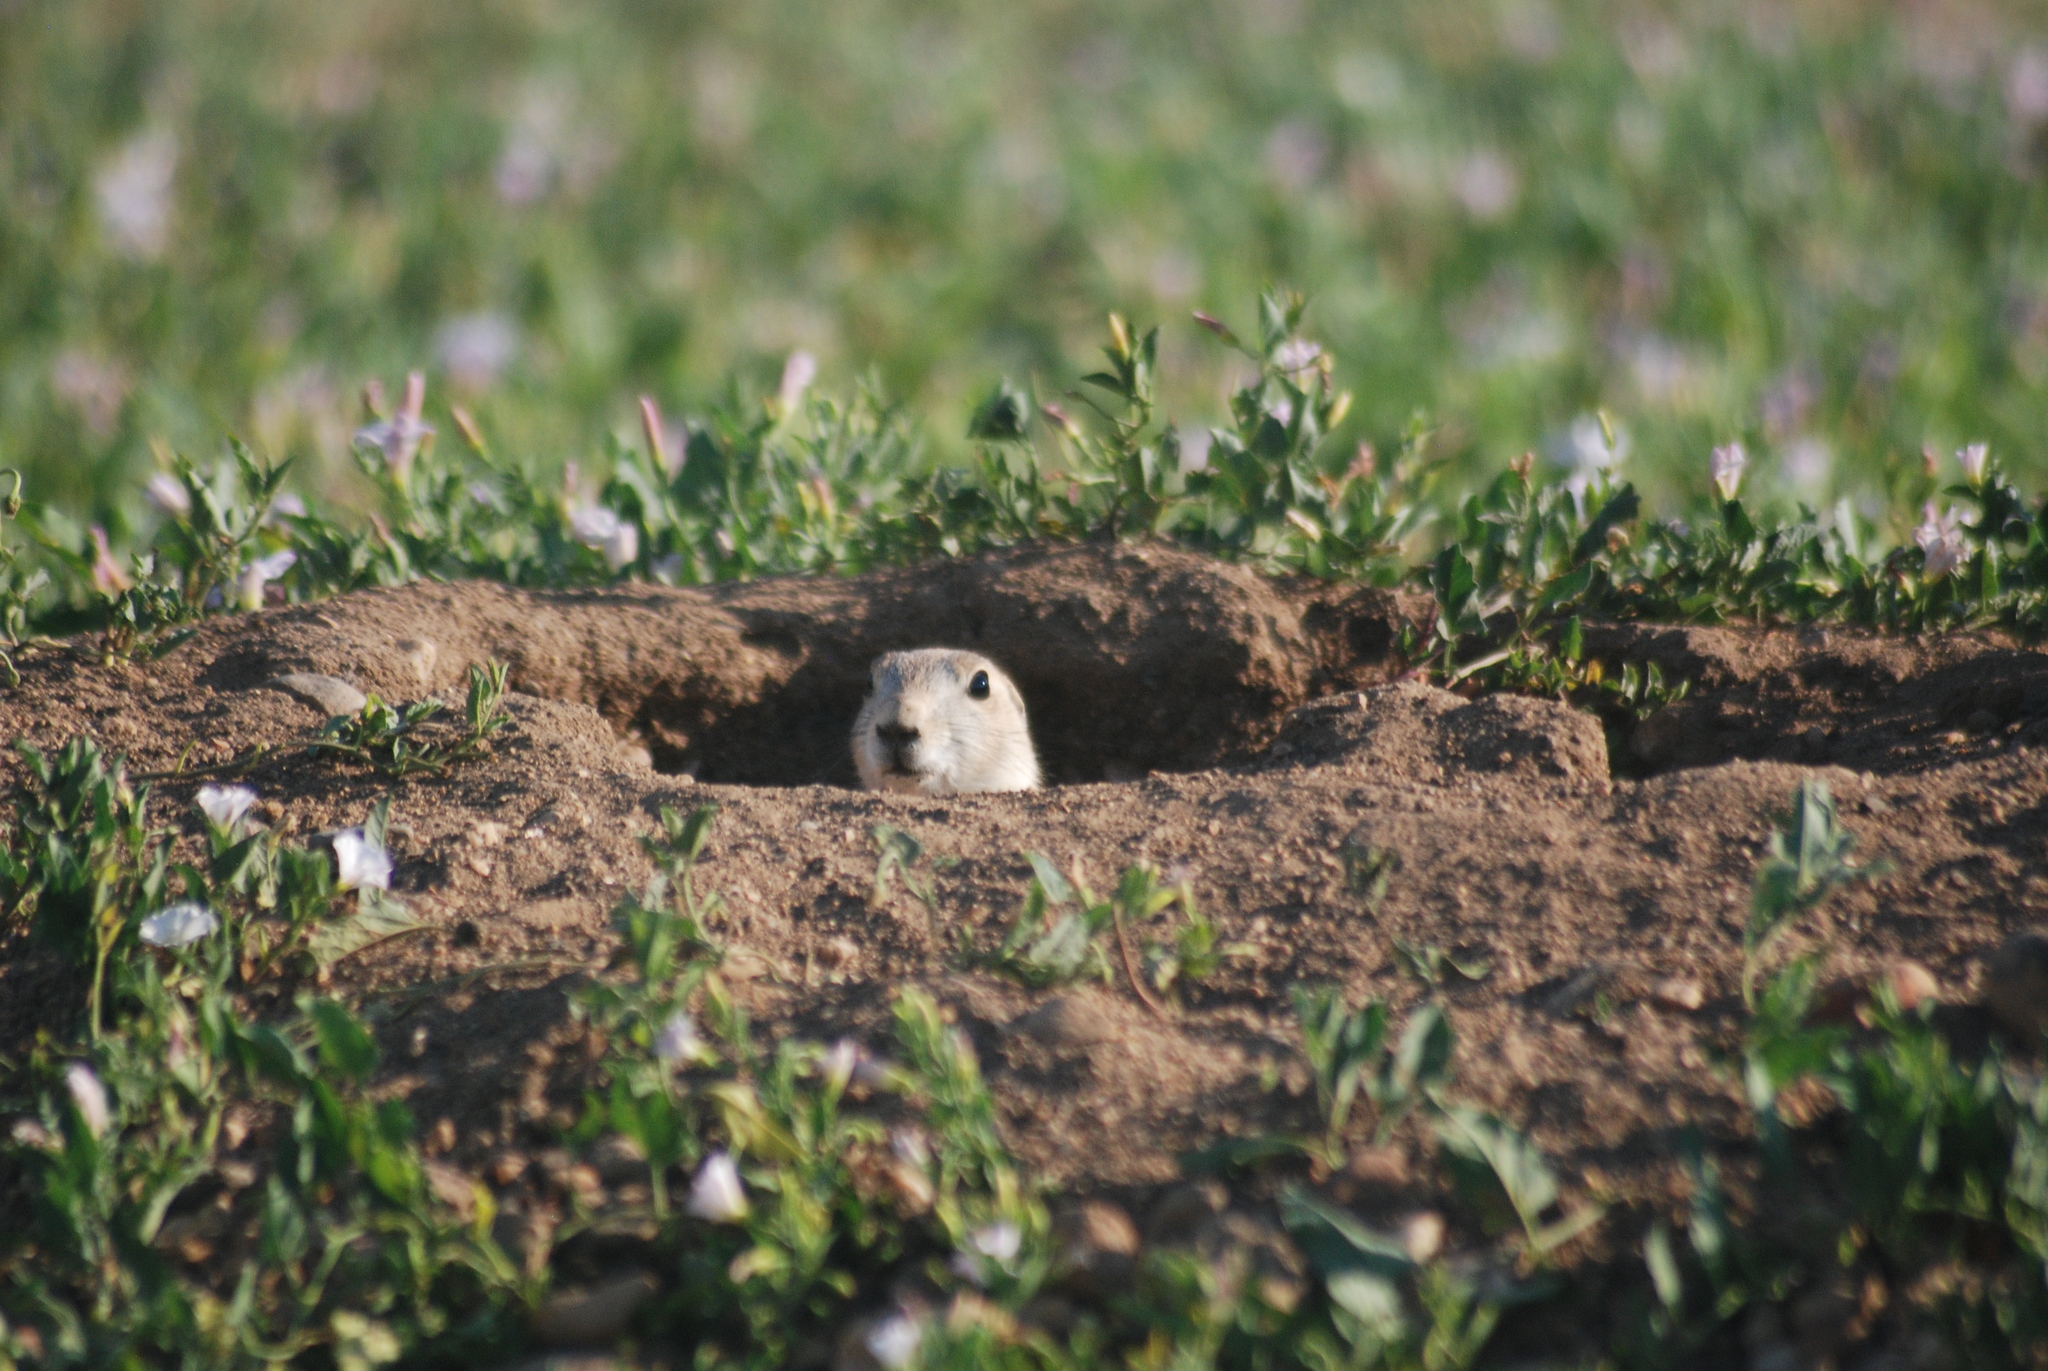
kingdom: Animalia
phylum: Chordata
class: Mammalia
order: Rodentia
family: Sciuridae
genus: Cynomys
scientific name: Cynomys ludovicianus
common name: Black-tailed prairie dog
